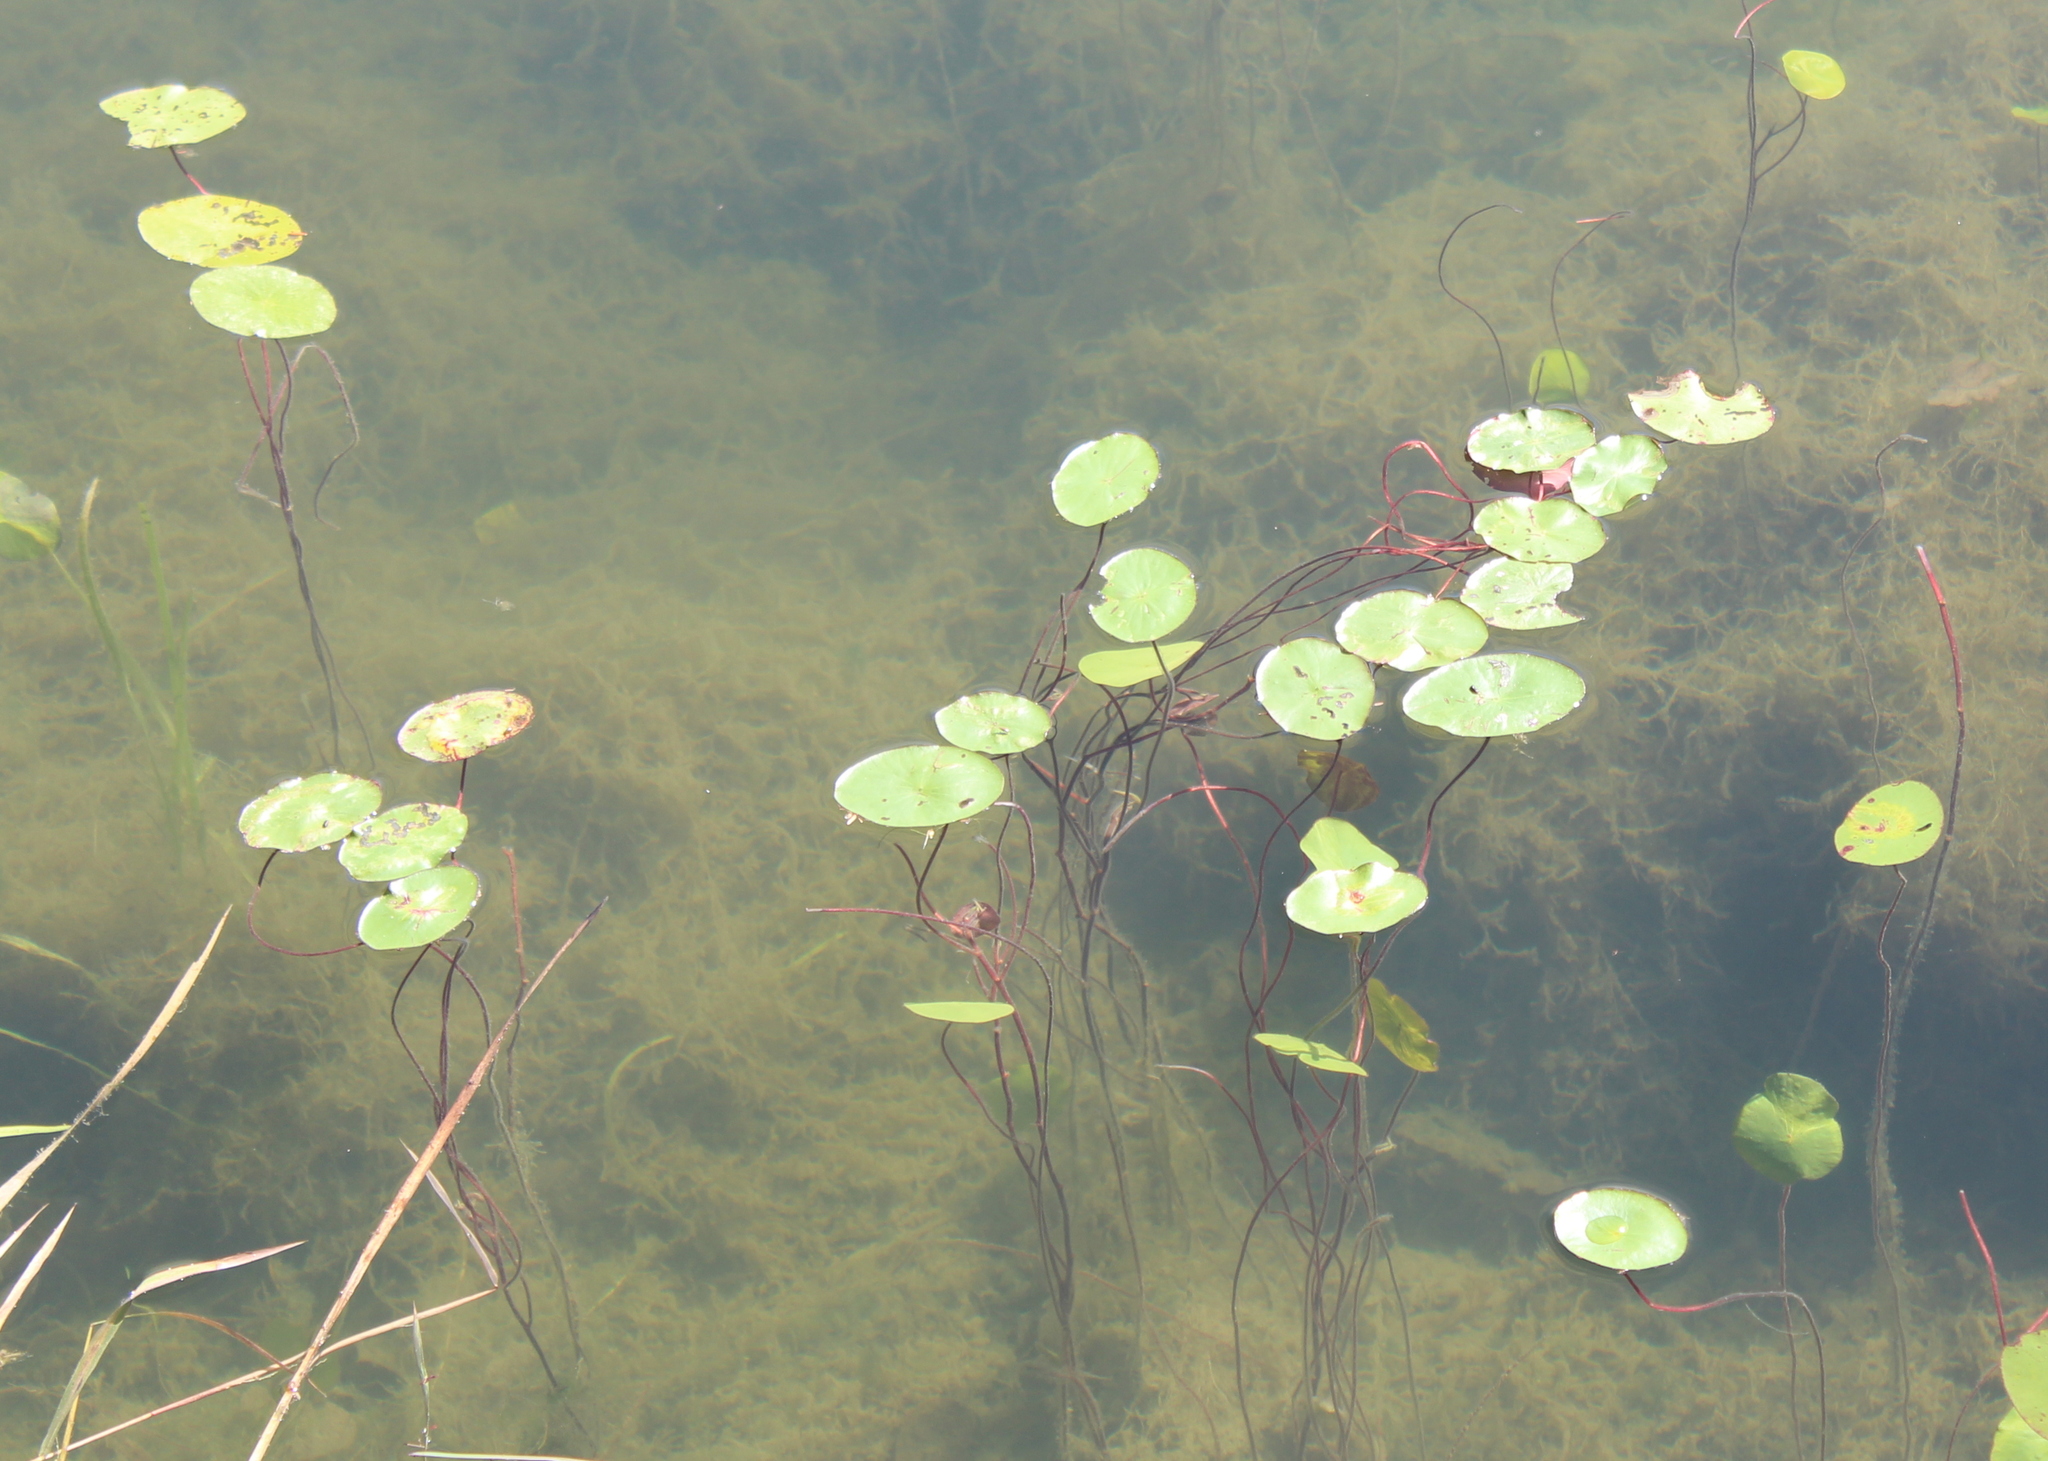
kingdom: Plantae
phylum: Tracheophyta
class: Magnoliopsida
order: Nymphaeales
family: Cabombaceae
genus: Brasenia
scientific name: Brasenia schreberi
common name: Water-shield
